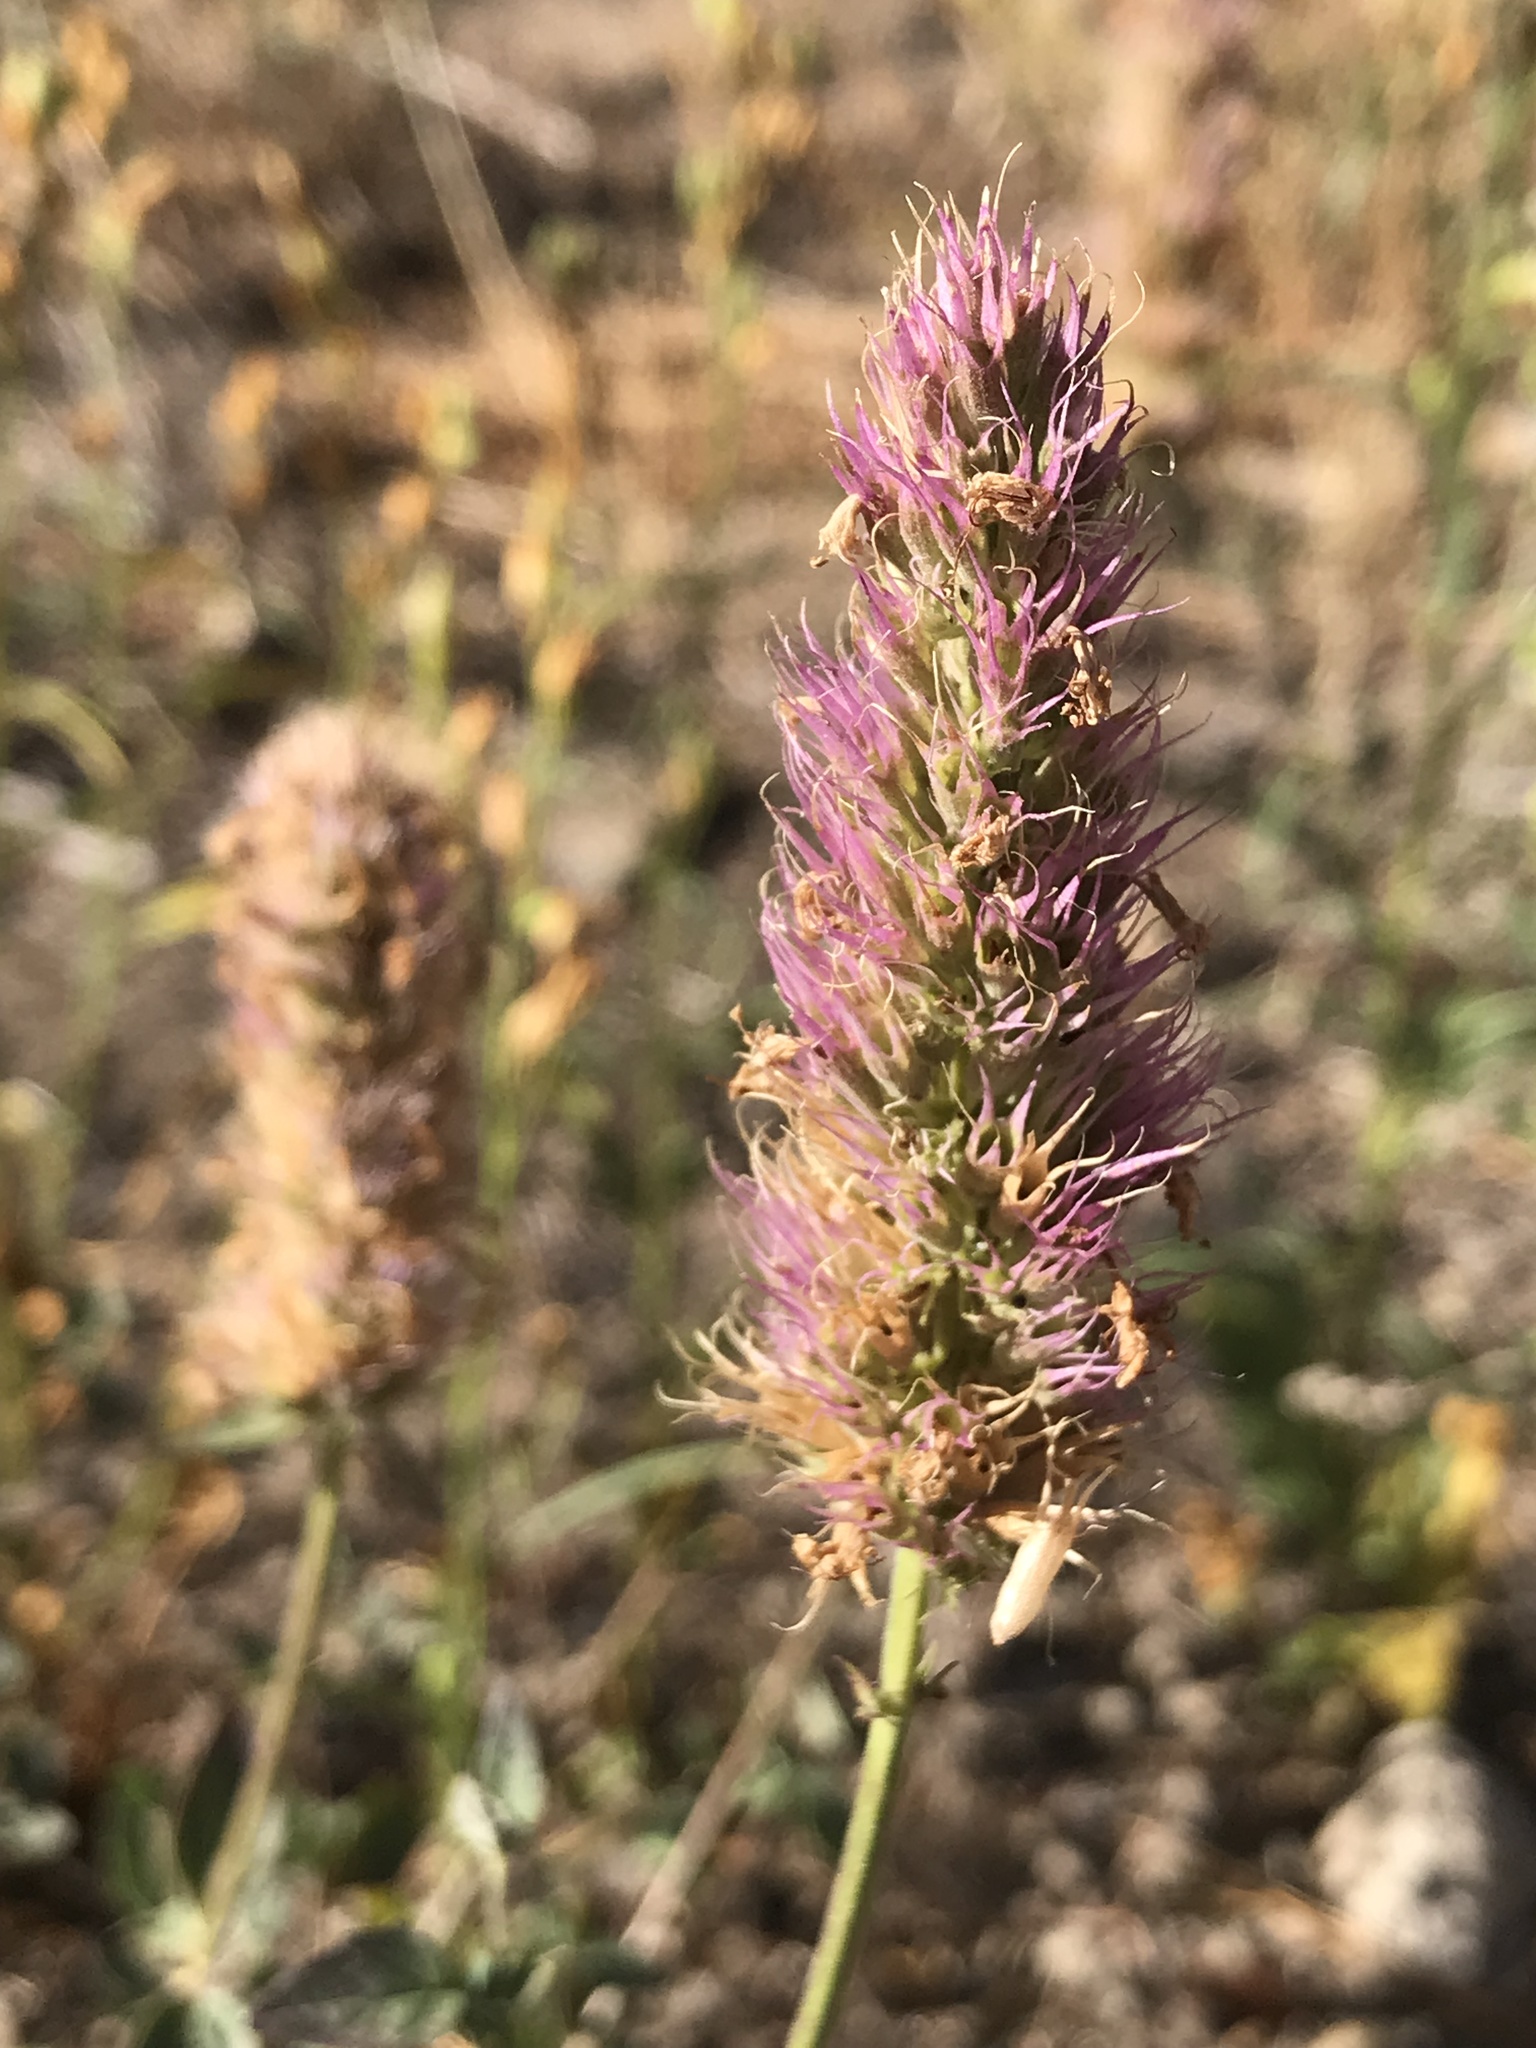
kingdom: Plantae
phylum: Tracheophyta
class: Magnoliopsida
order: Lamiales
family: Lamiaceae
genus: Agastache
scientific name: Agastache urticifolia
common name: Horsemint giant hyssop
